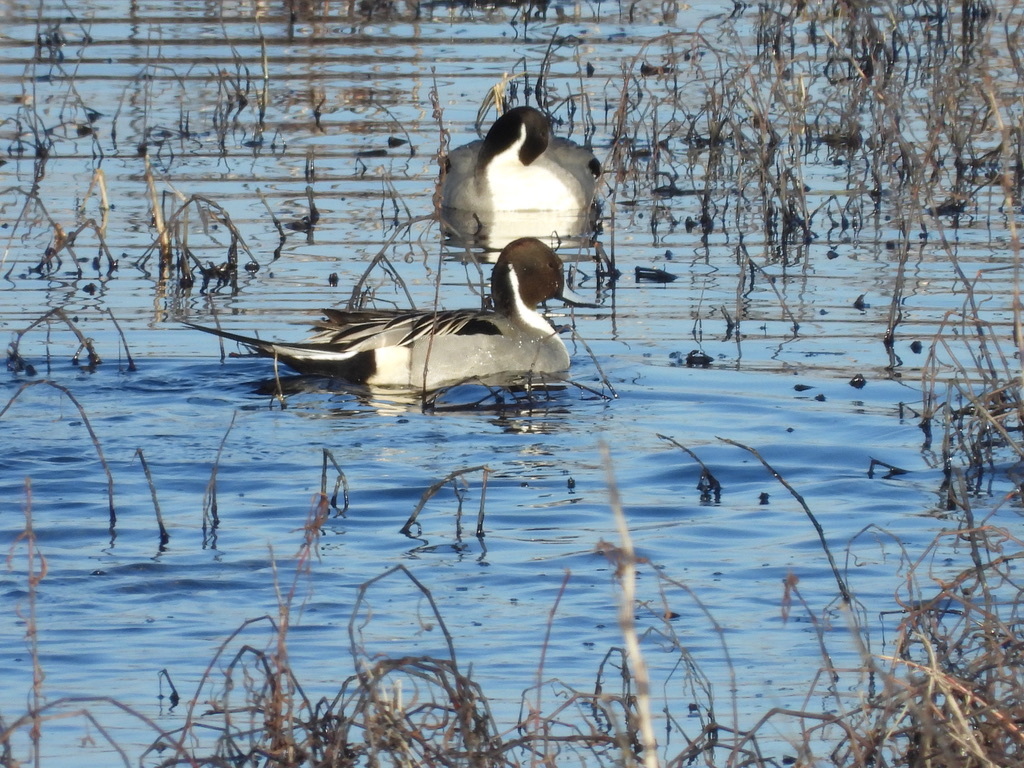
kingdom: Animalia
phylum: Chordata
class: Aves
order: Anseriformes
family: Anatidae
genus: Anas
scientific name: Anas acuta
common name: Northern pintail
